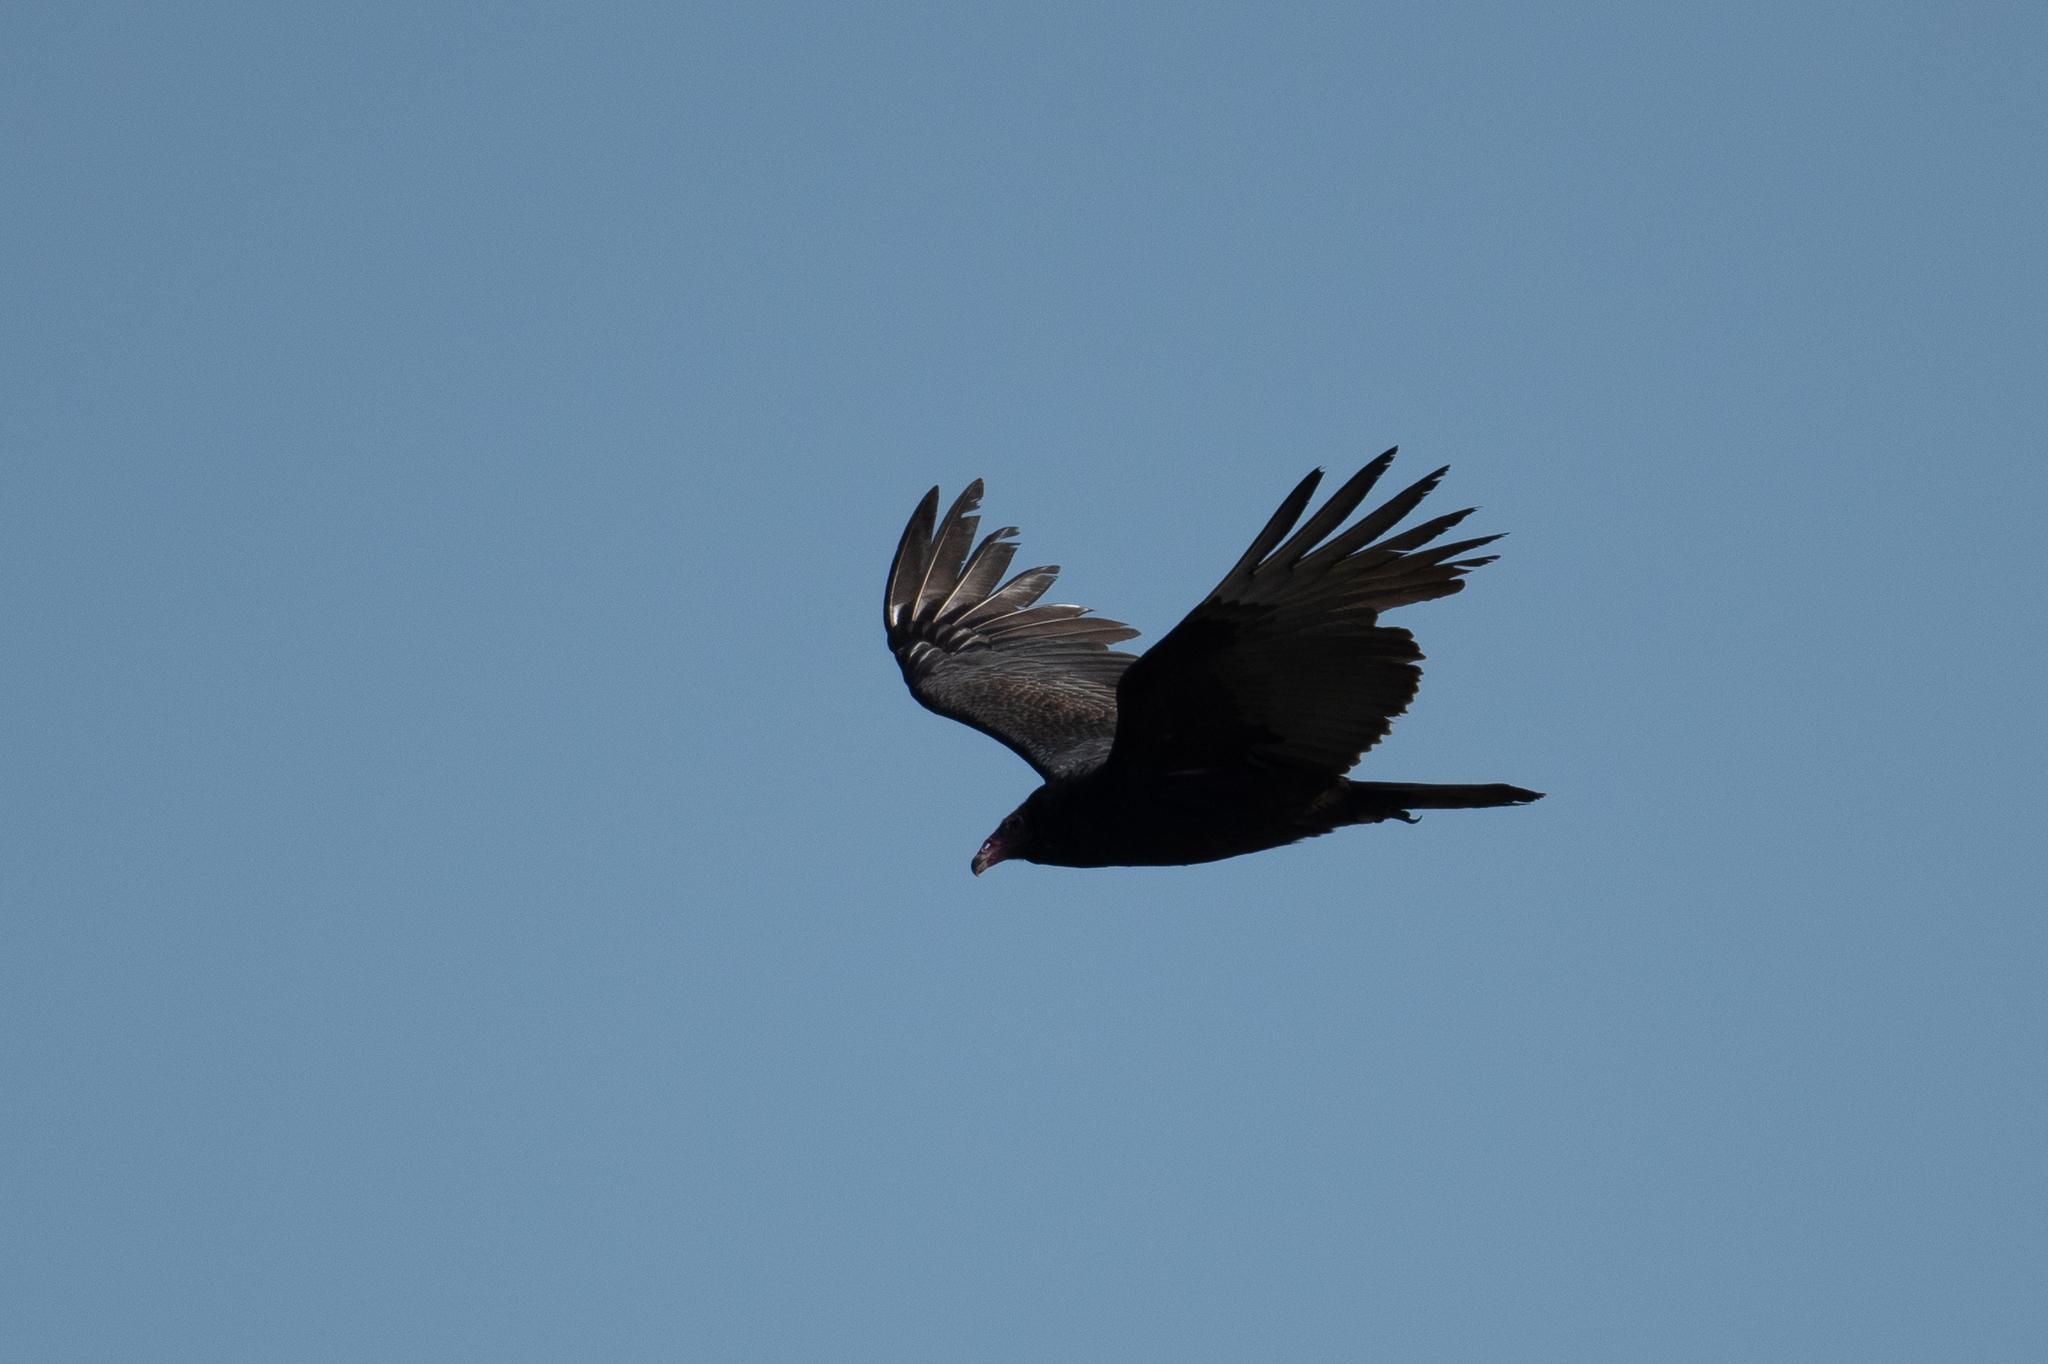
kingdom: Animalia
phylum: Chordata
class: Aves
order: Accipitriformes
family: Cathartidae
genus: Cathartes
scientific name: Cathartes aura
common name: Turkey vulture
